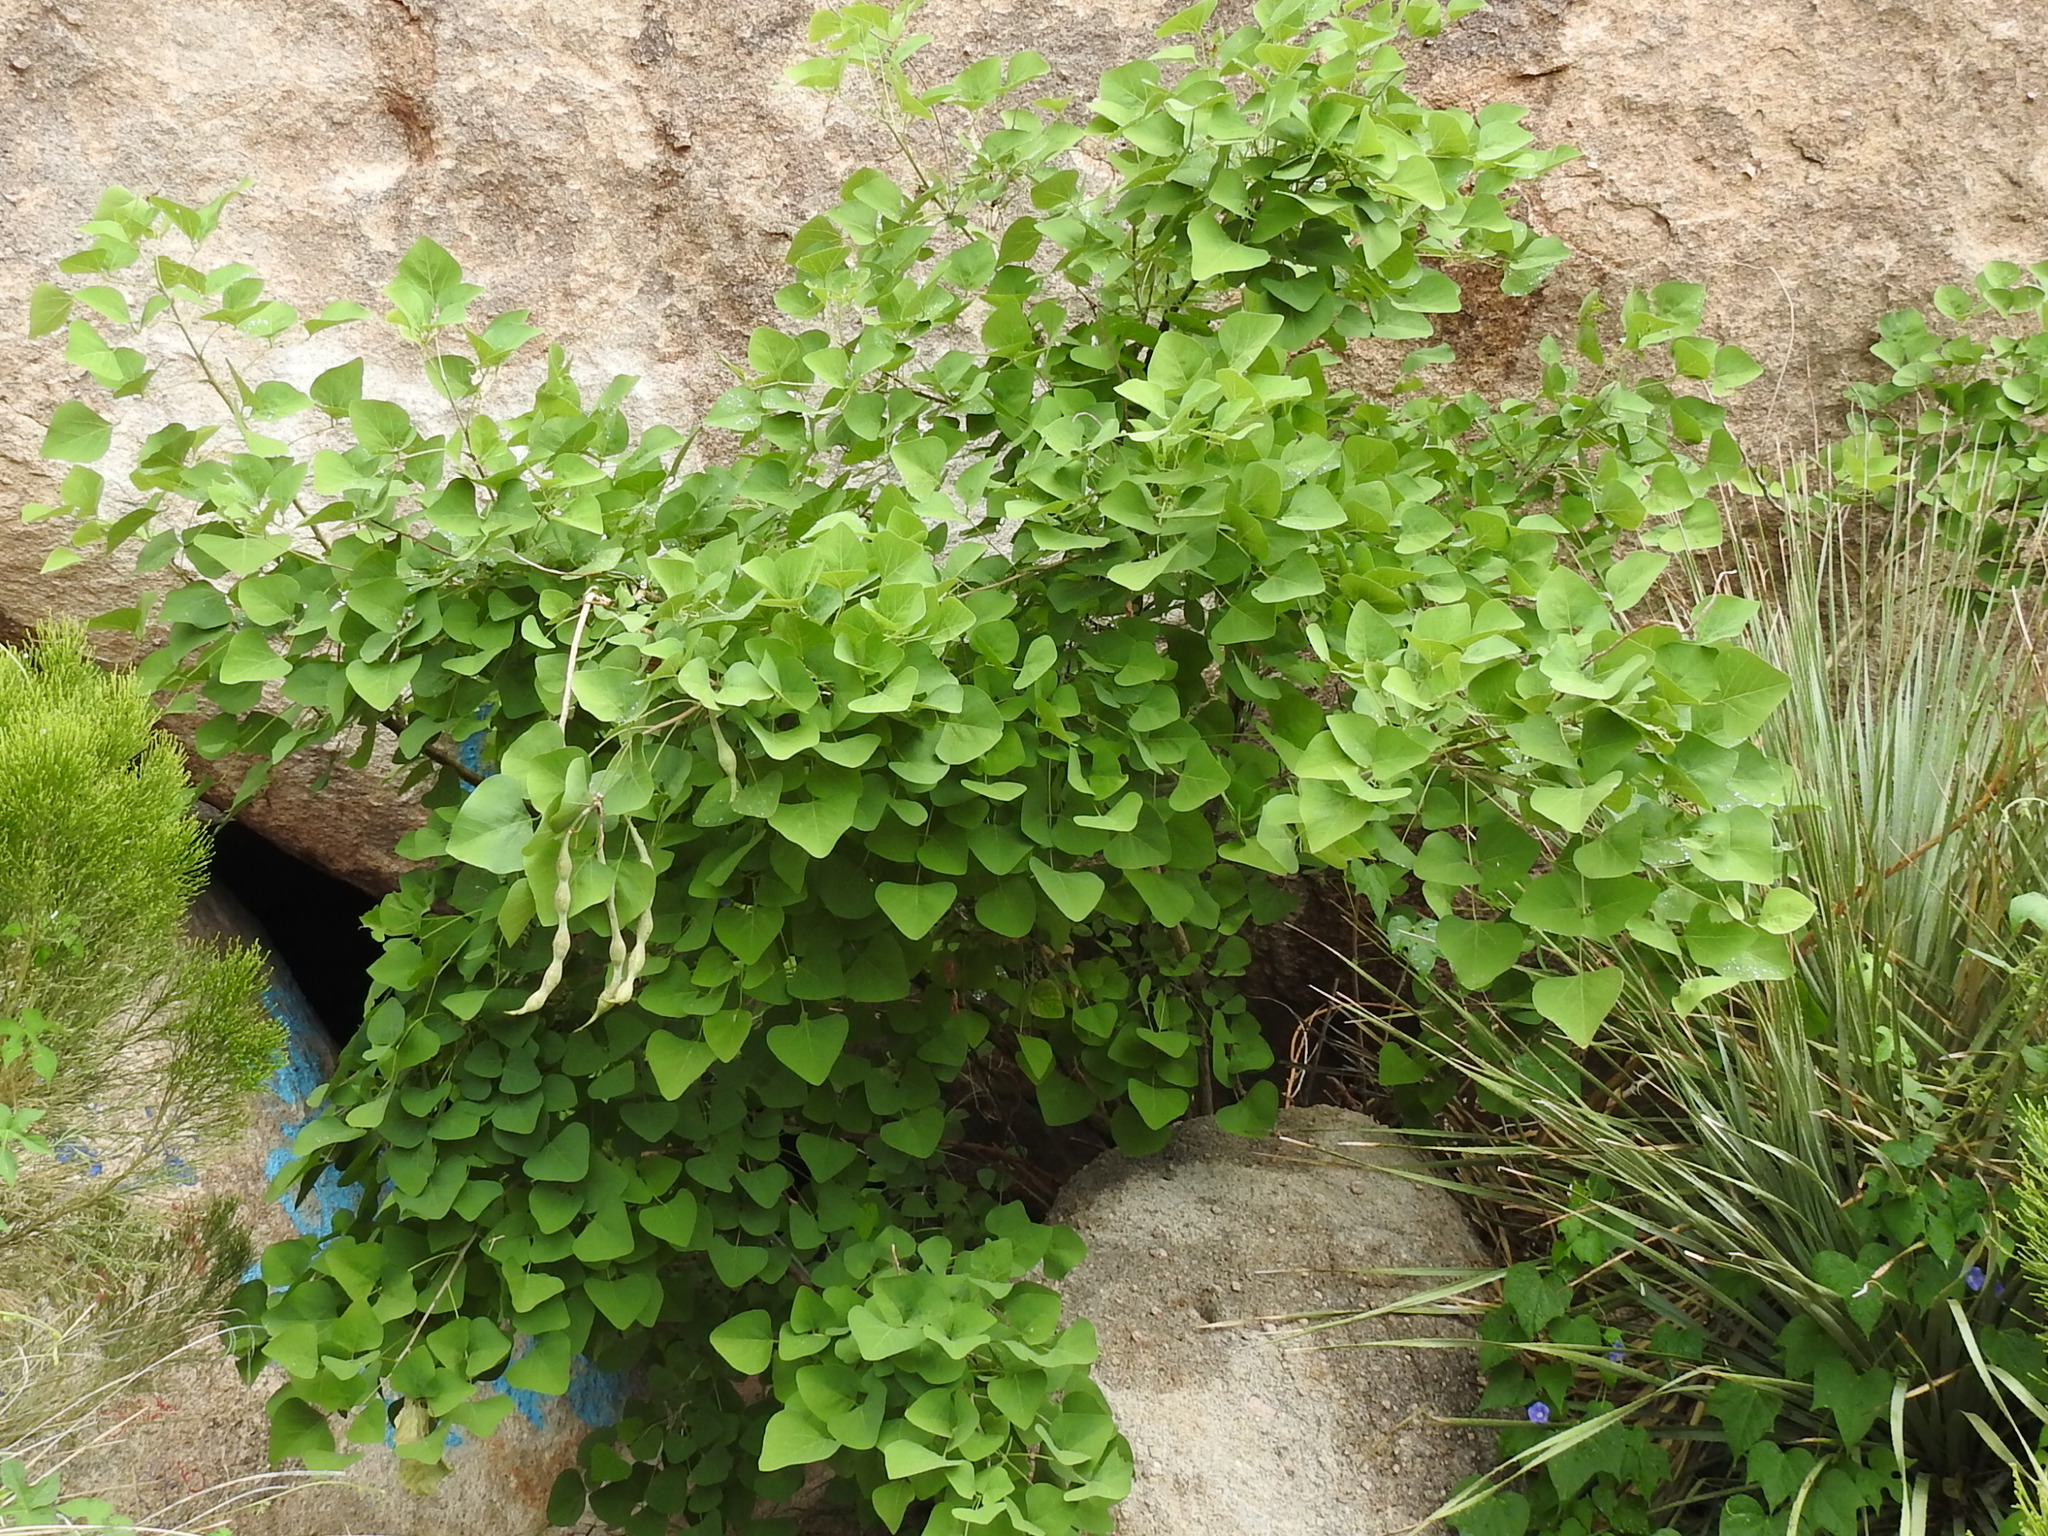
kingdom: Plantae
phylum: Tracheophyta
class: Magnoliopsida
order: Fabales
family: Fabaceae
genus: Erythrina
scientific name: Erythrina flabelliformis
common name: Chilicote
